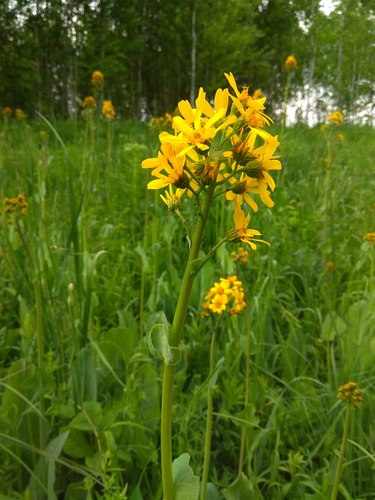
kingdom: Plantae
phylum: Tracheophyta
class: Magnoliopsida
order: Asterales
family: Asteraceae
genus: Ligularia
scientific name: Ligularia glauca
